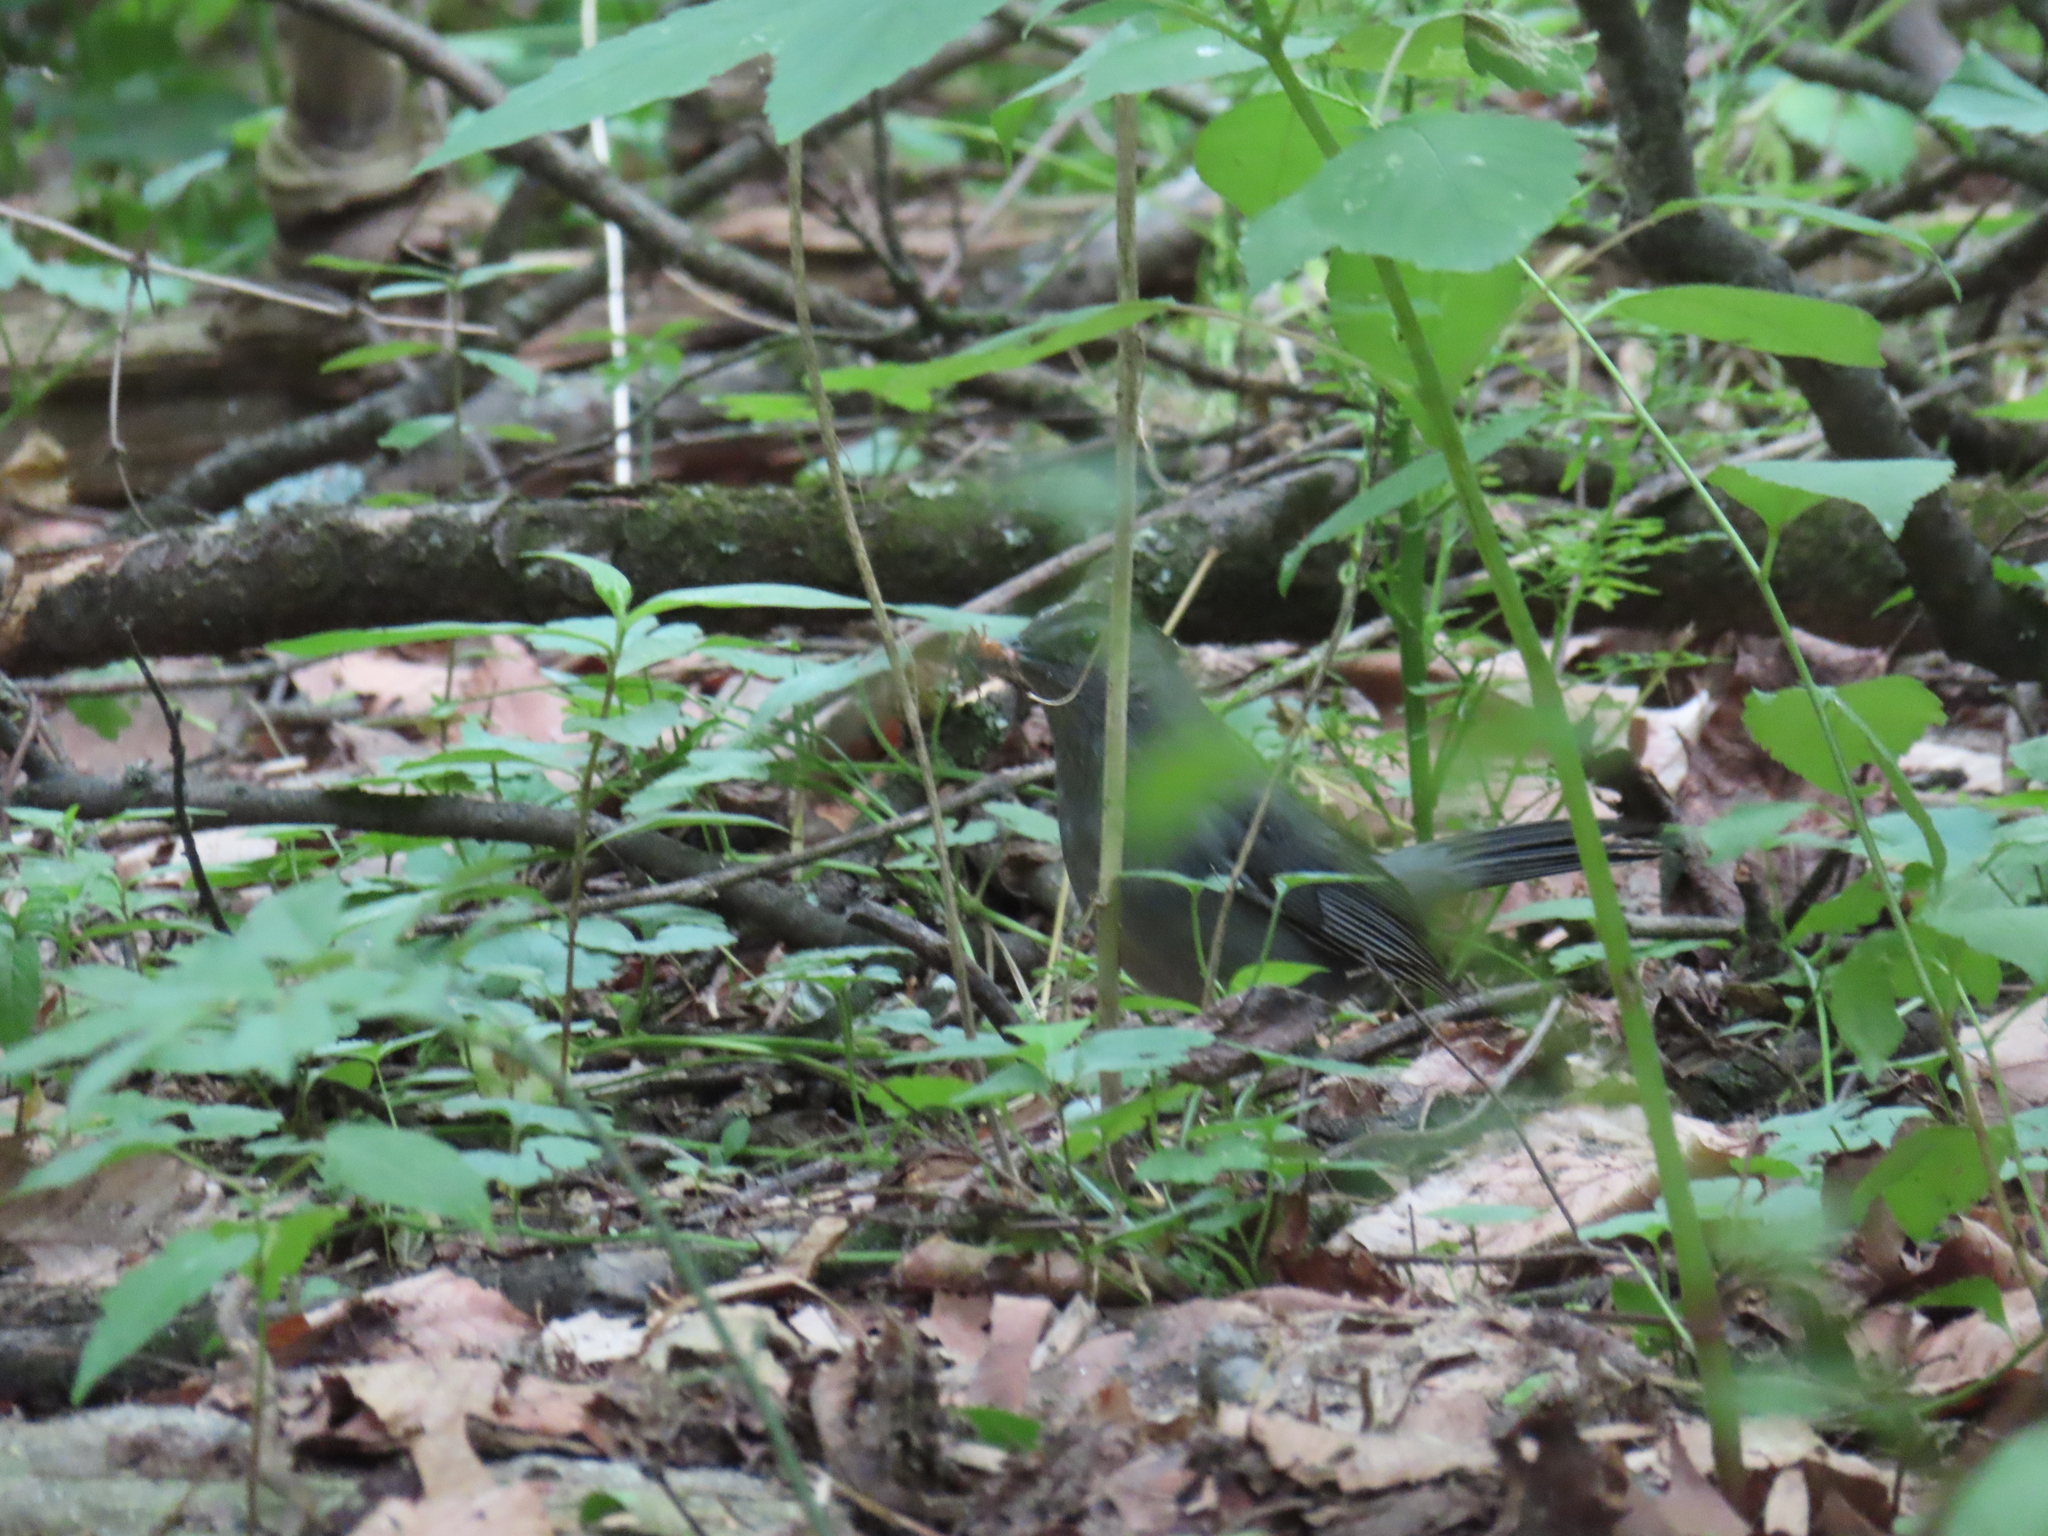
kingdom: Animalia
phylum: Chordata
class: Aves
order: Passeriformes
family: Mimidae
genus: Dumetella
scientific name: Dumetella carolinensis
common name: Gray catbird
